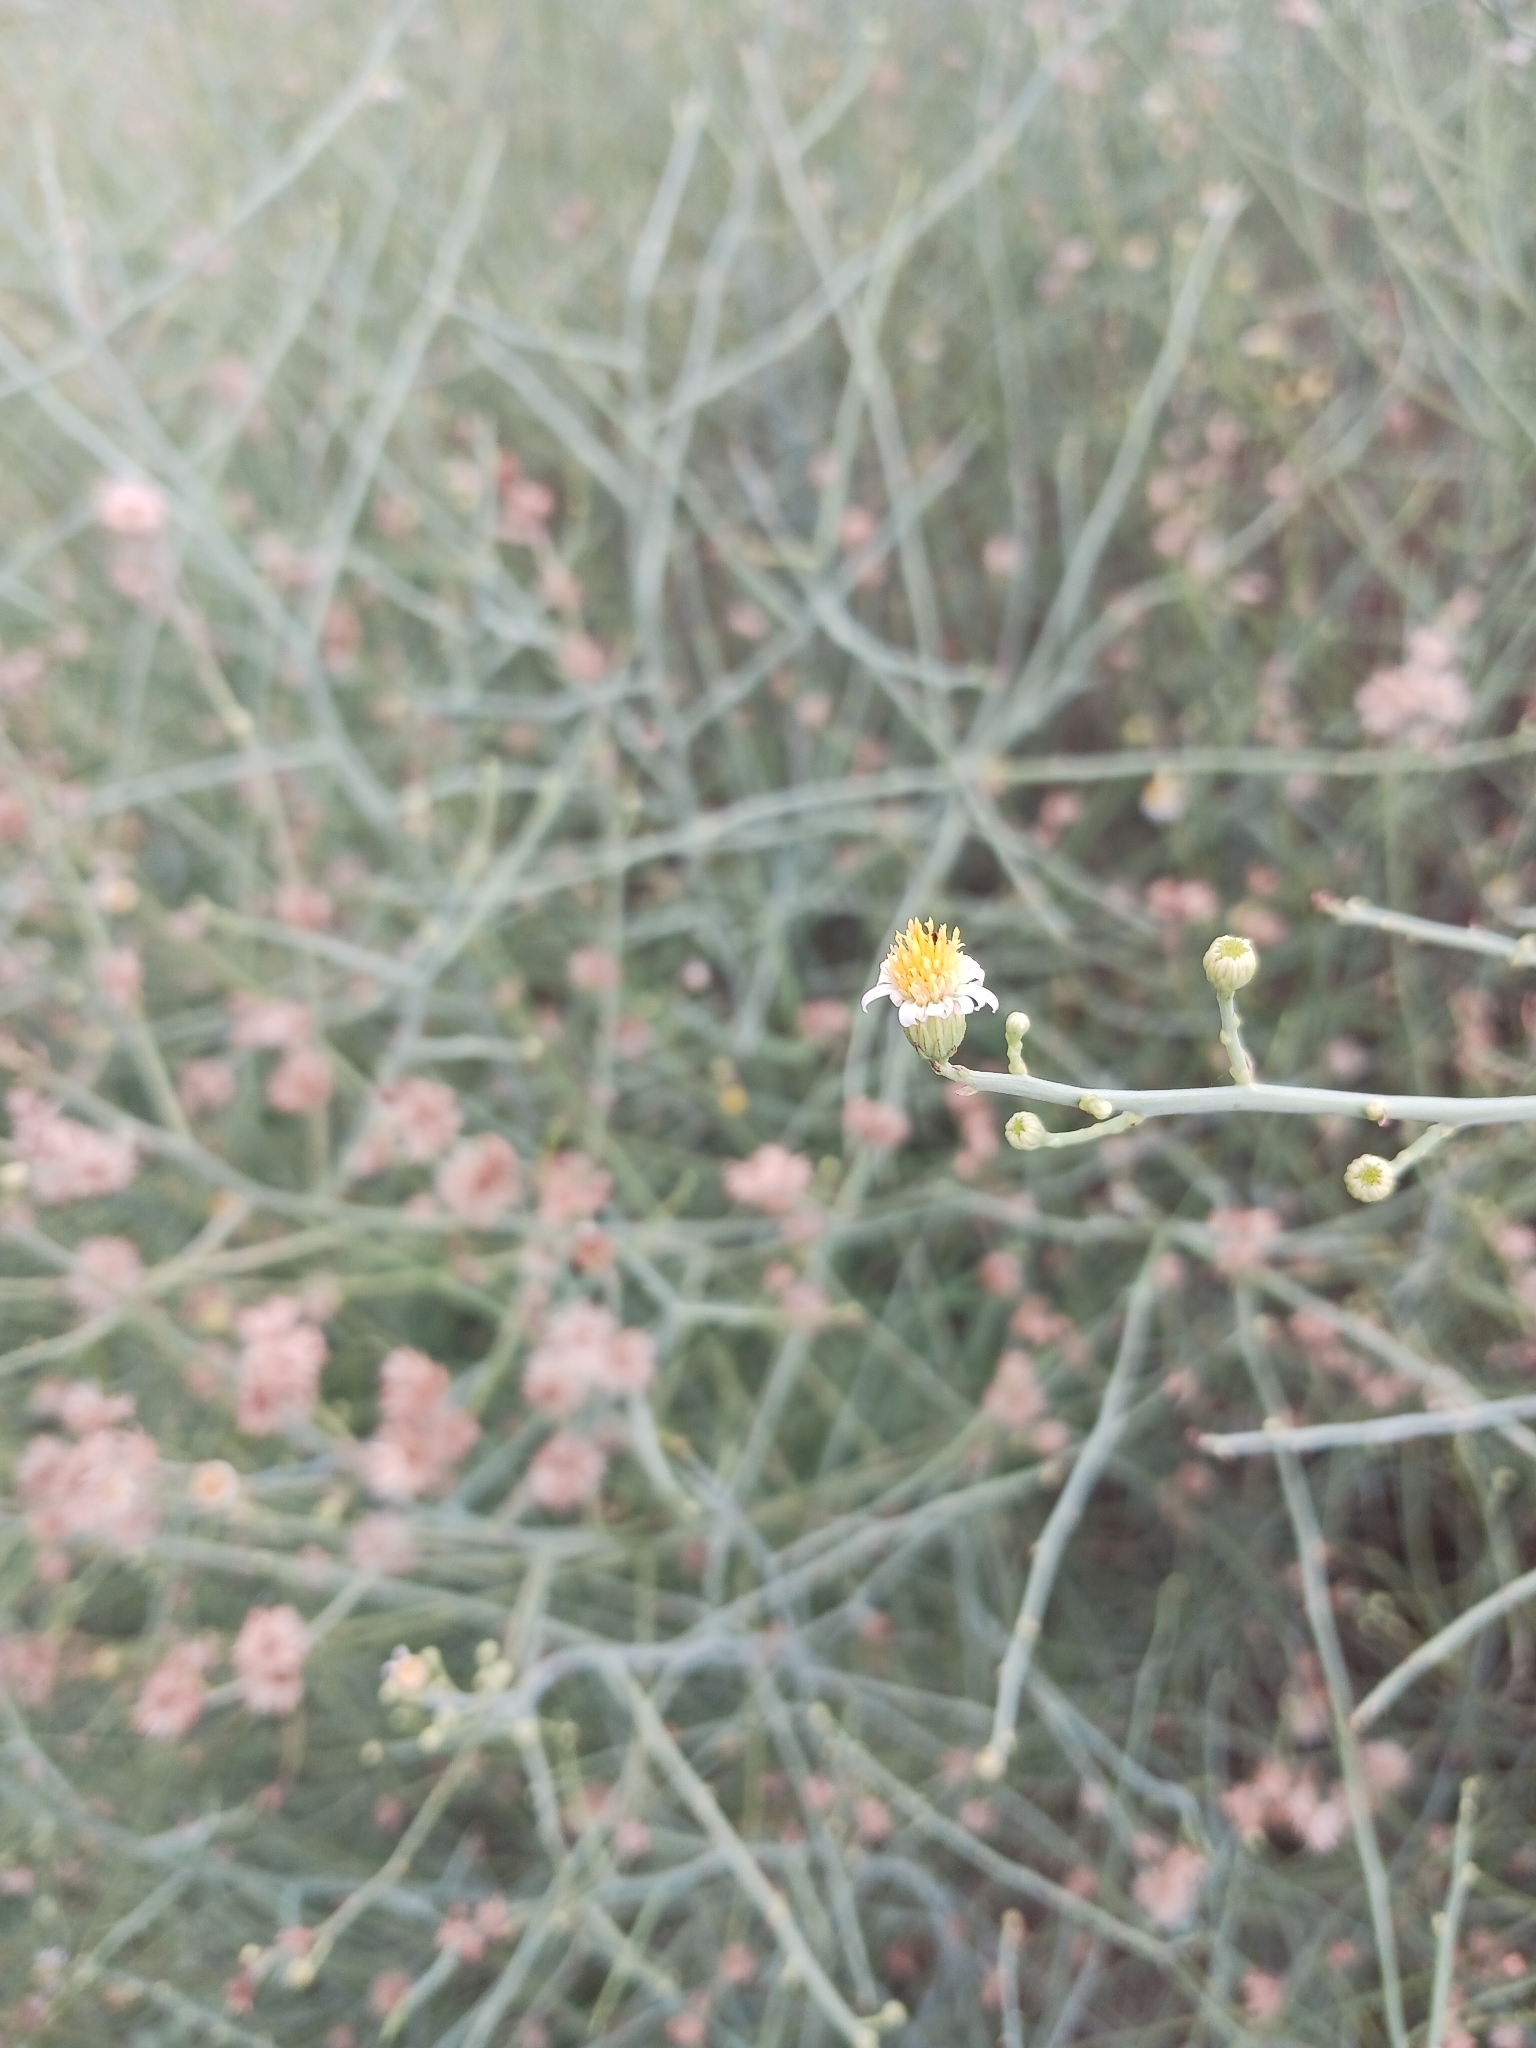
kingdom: Plantae
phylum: Tracheophyta
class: Magnoliopsida
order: Asterales
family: Asteraceae
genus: Chloracantha
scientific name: Chloracantha spinosa
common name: Mexican devilweed
